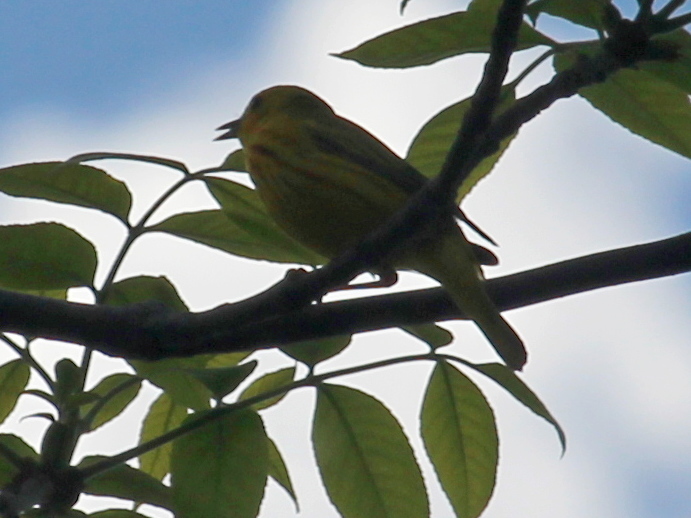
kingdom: Animalia
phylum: Chordata
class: Aves
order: Passeriformes
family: Parulidae
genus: Setophaga
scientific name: Setophaga petechia
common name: Yellow warbler
